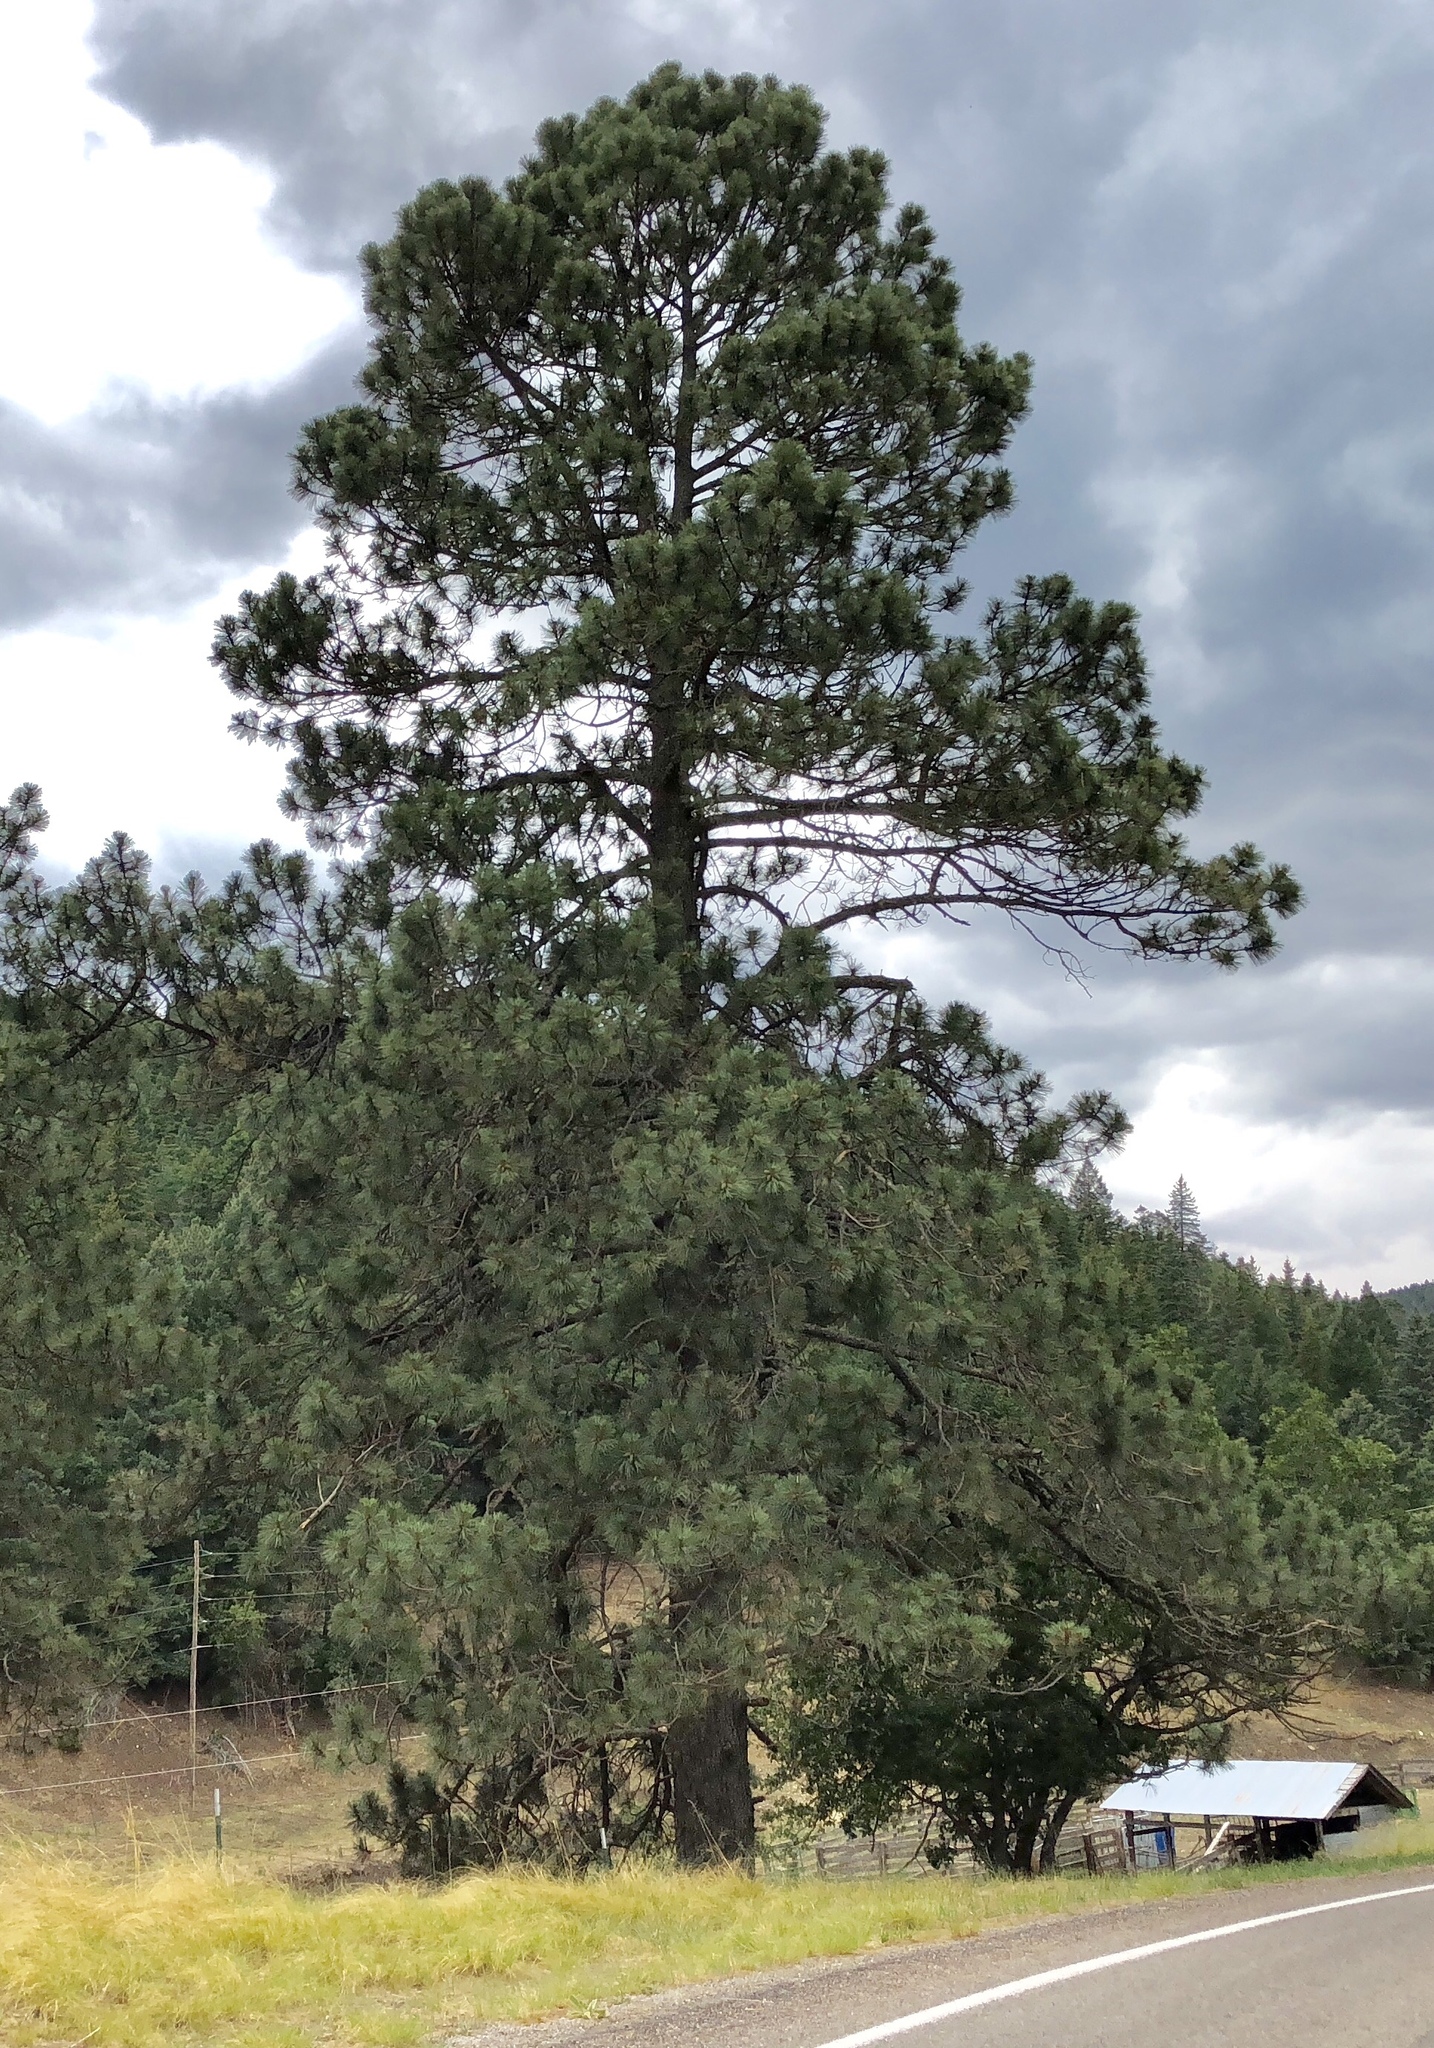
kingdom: Plantae
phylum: Tracheophyta
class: Pinopsida
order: Pinales
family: Pinaceae
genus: Pinus
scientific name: Pinus ponderosa
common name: Western yellow-pine
